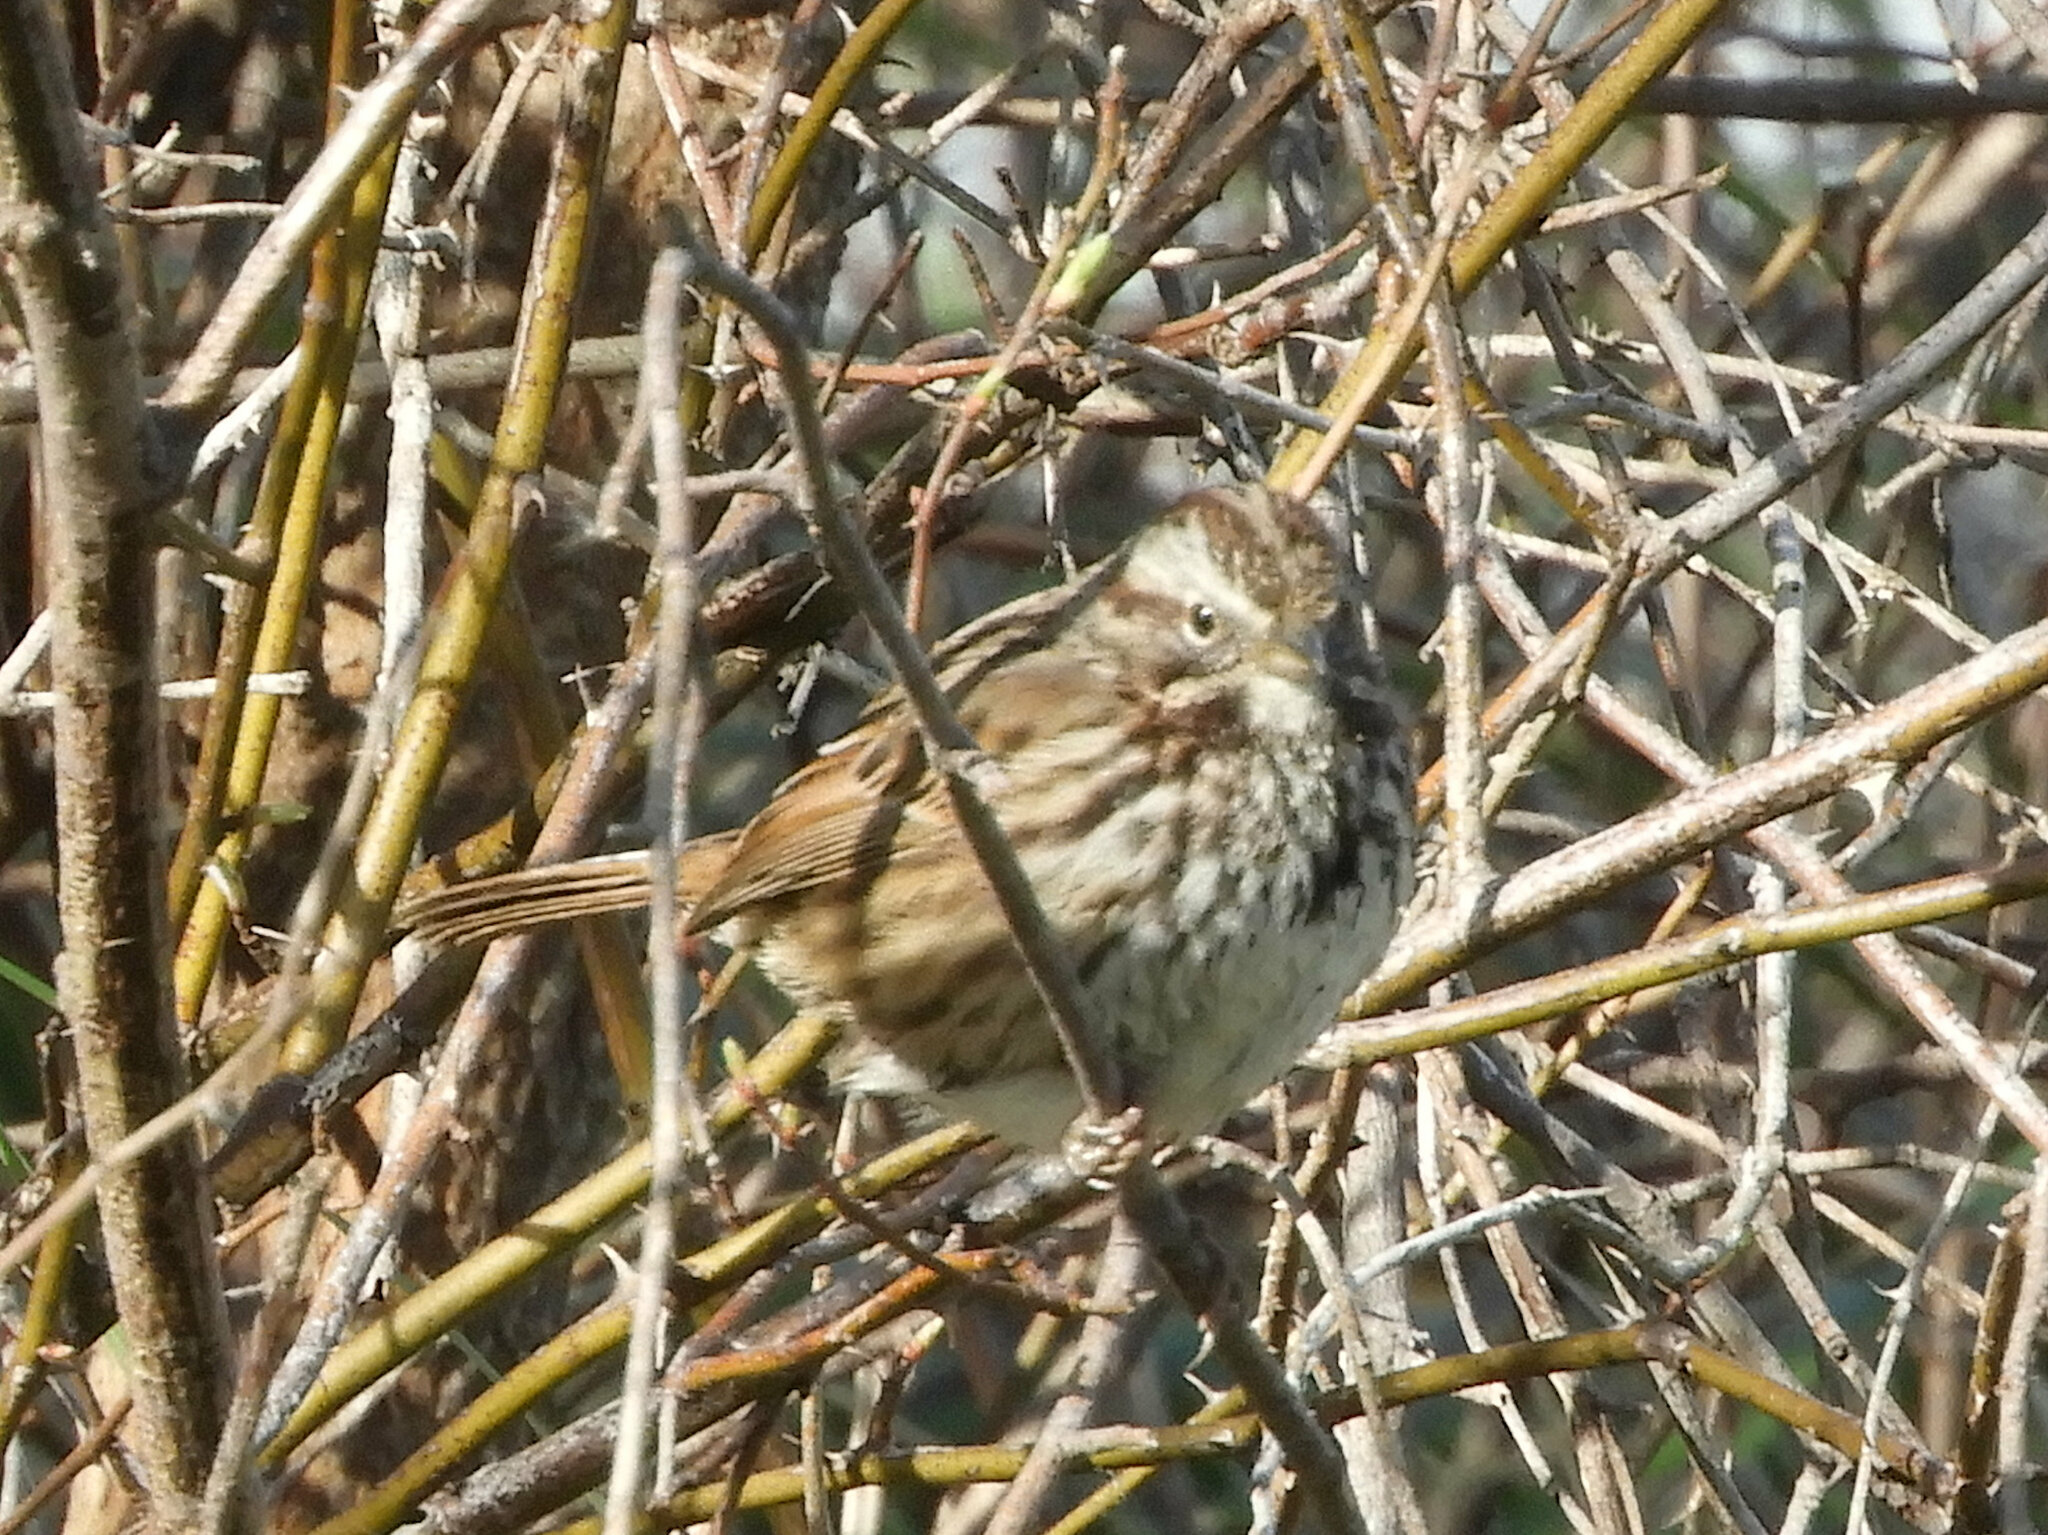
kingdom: Animalia
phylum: Chordata
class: Aves
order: Passeriformes
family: Passerellidae
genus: Melospiza
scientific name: Melospiza melodia
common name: Song sparrow
